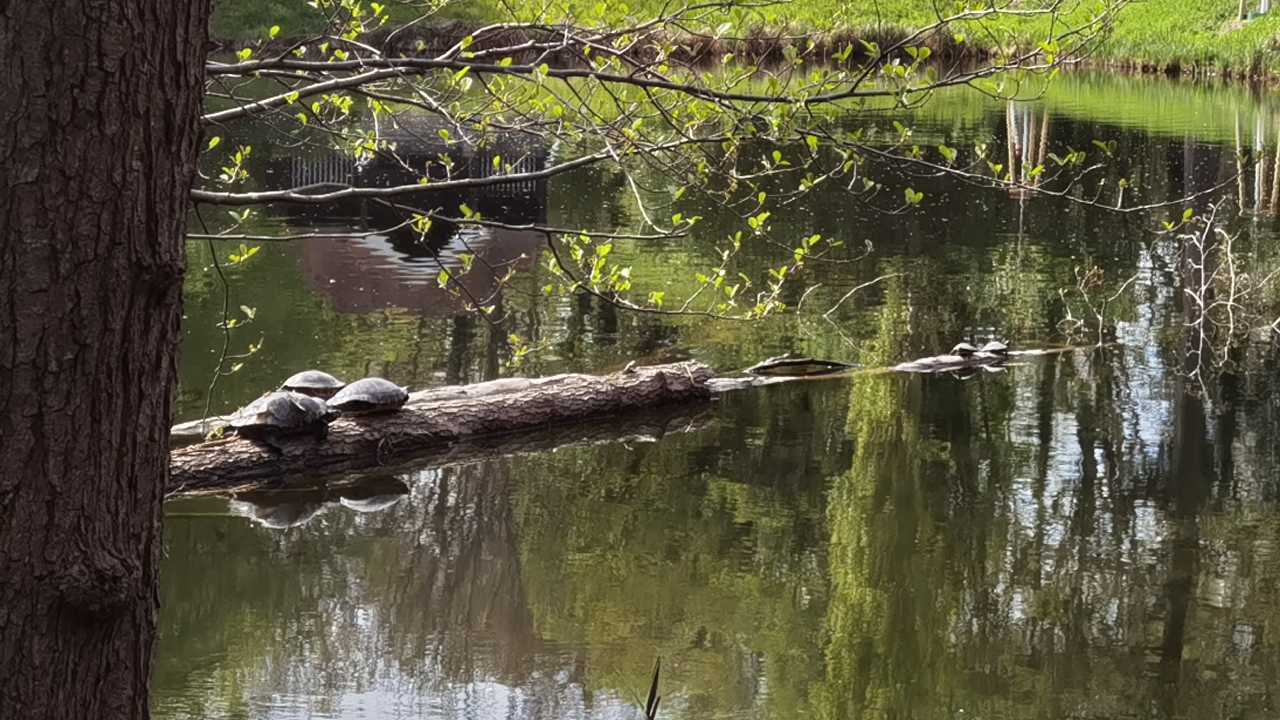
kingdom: Animalia
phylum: Chordata
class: Testudines
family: Emydidae
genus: Trachemys
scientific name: Trachemys scripta
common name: Slider
